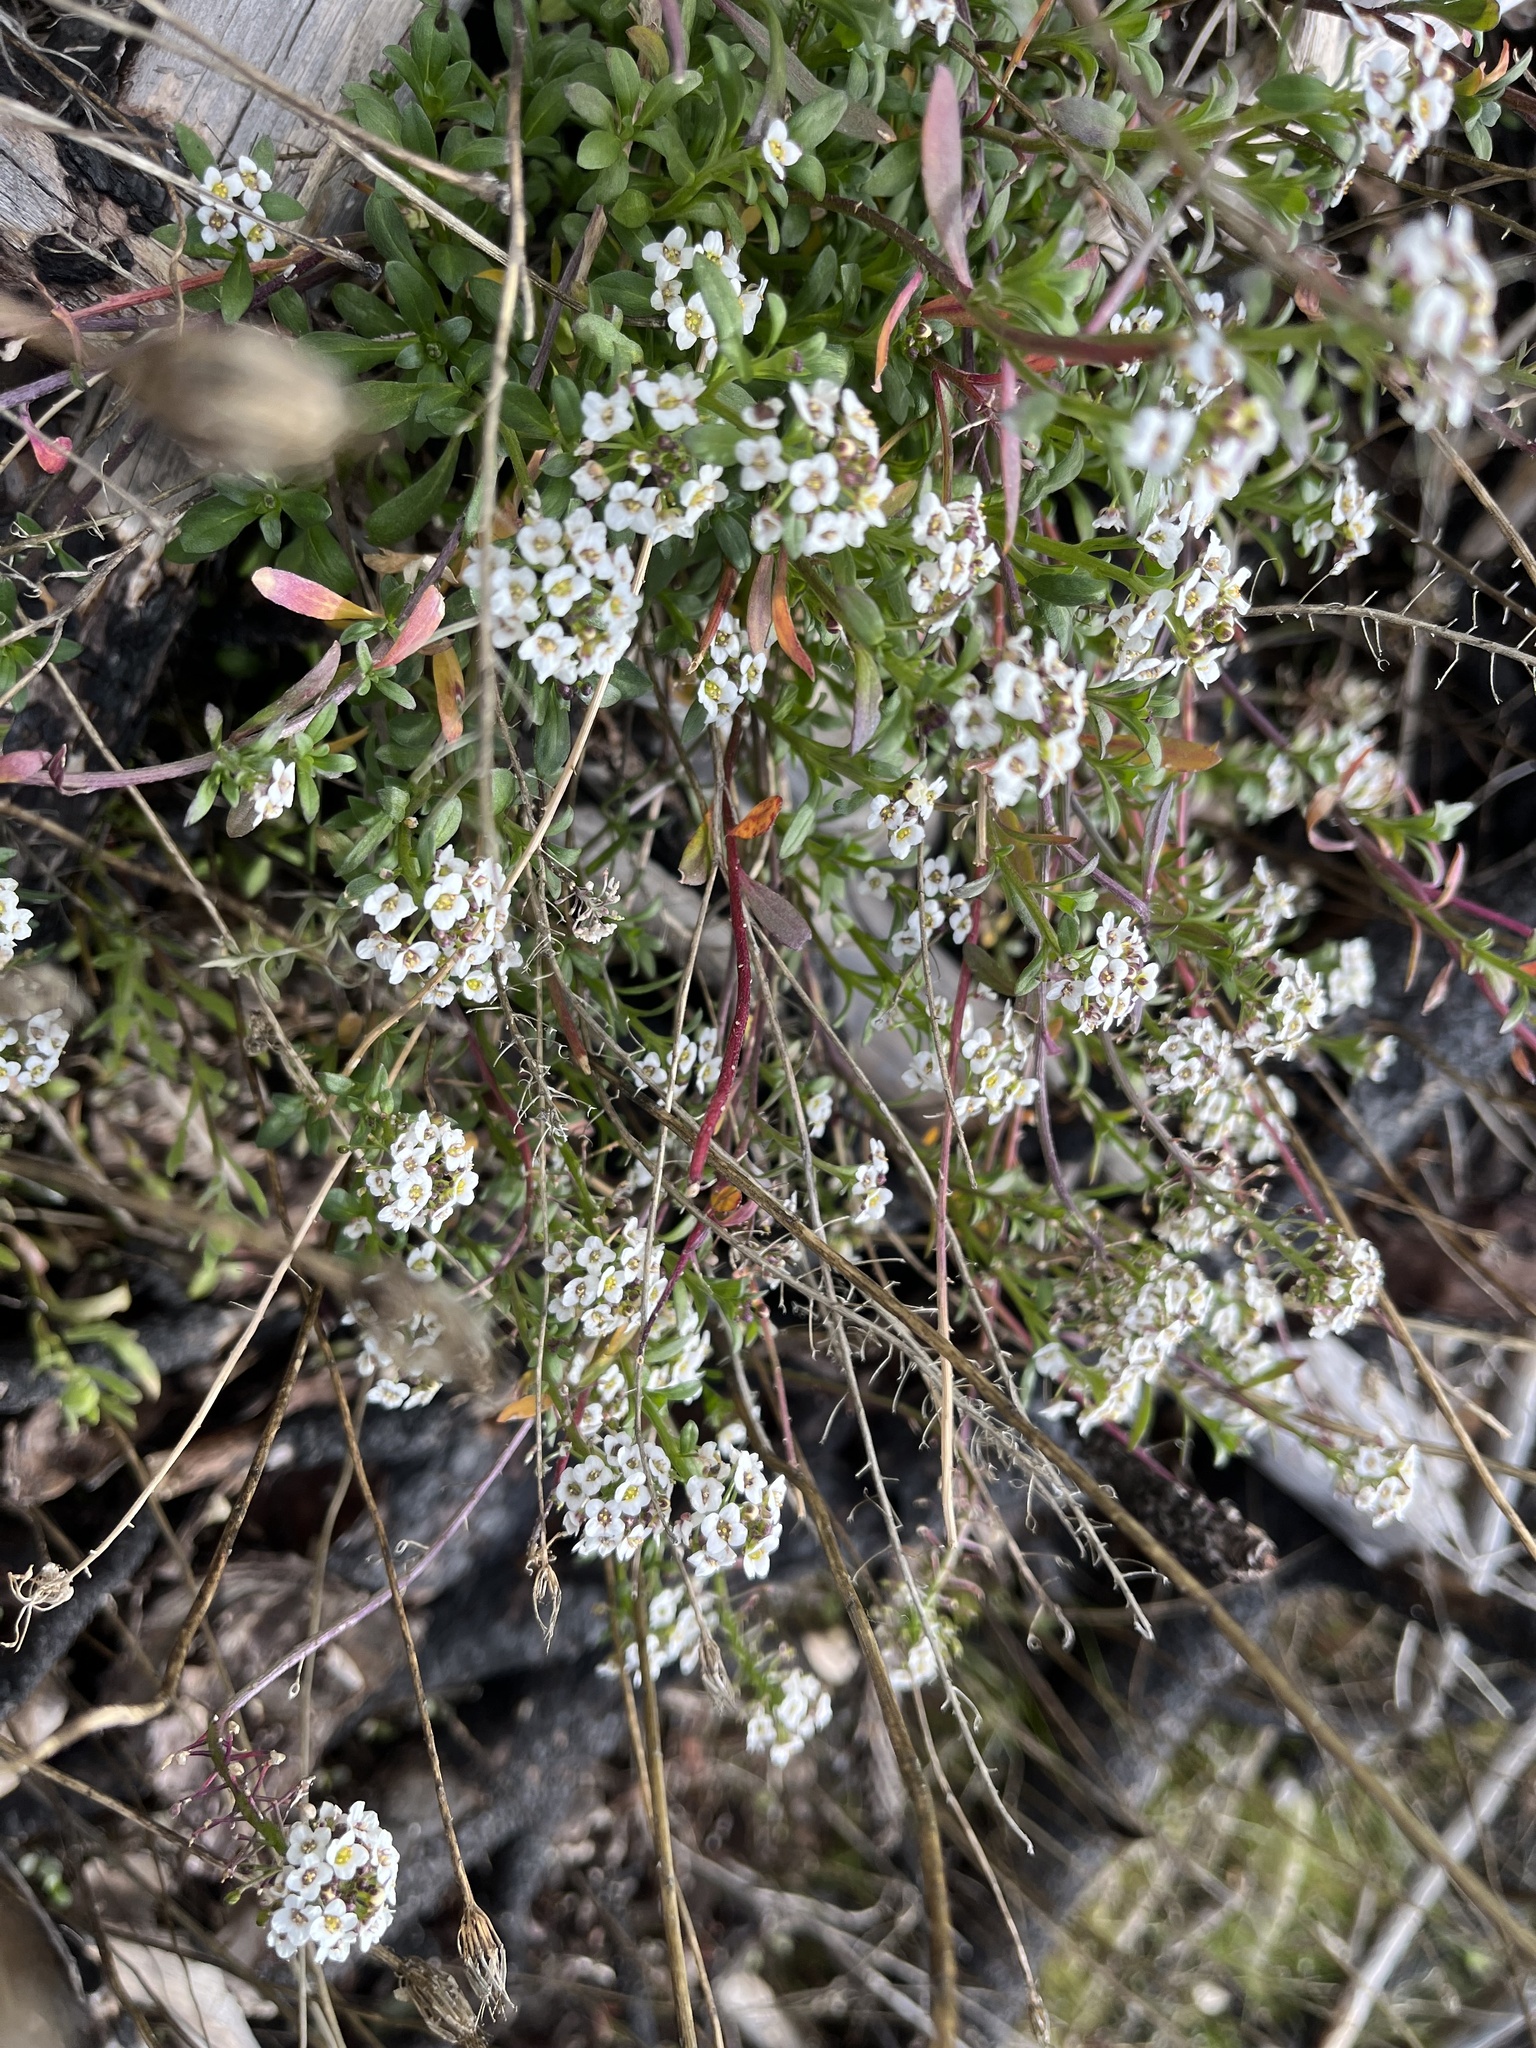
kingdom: Plantae
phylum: Tracheophyta
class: Magnoliopsida
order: Brassicales
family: Brassicaceae
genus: Lobularia
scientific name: Lobularia maritima
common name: Sweet alison
